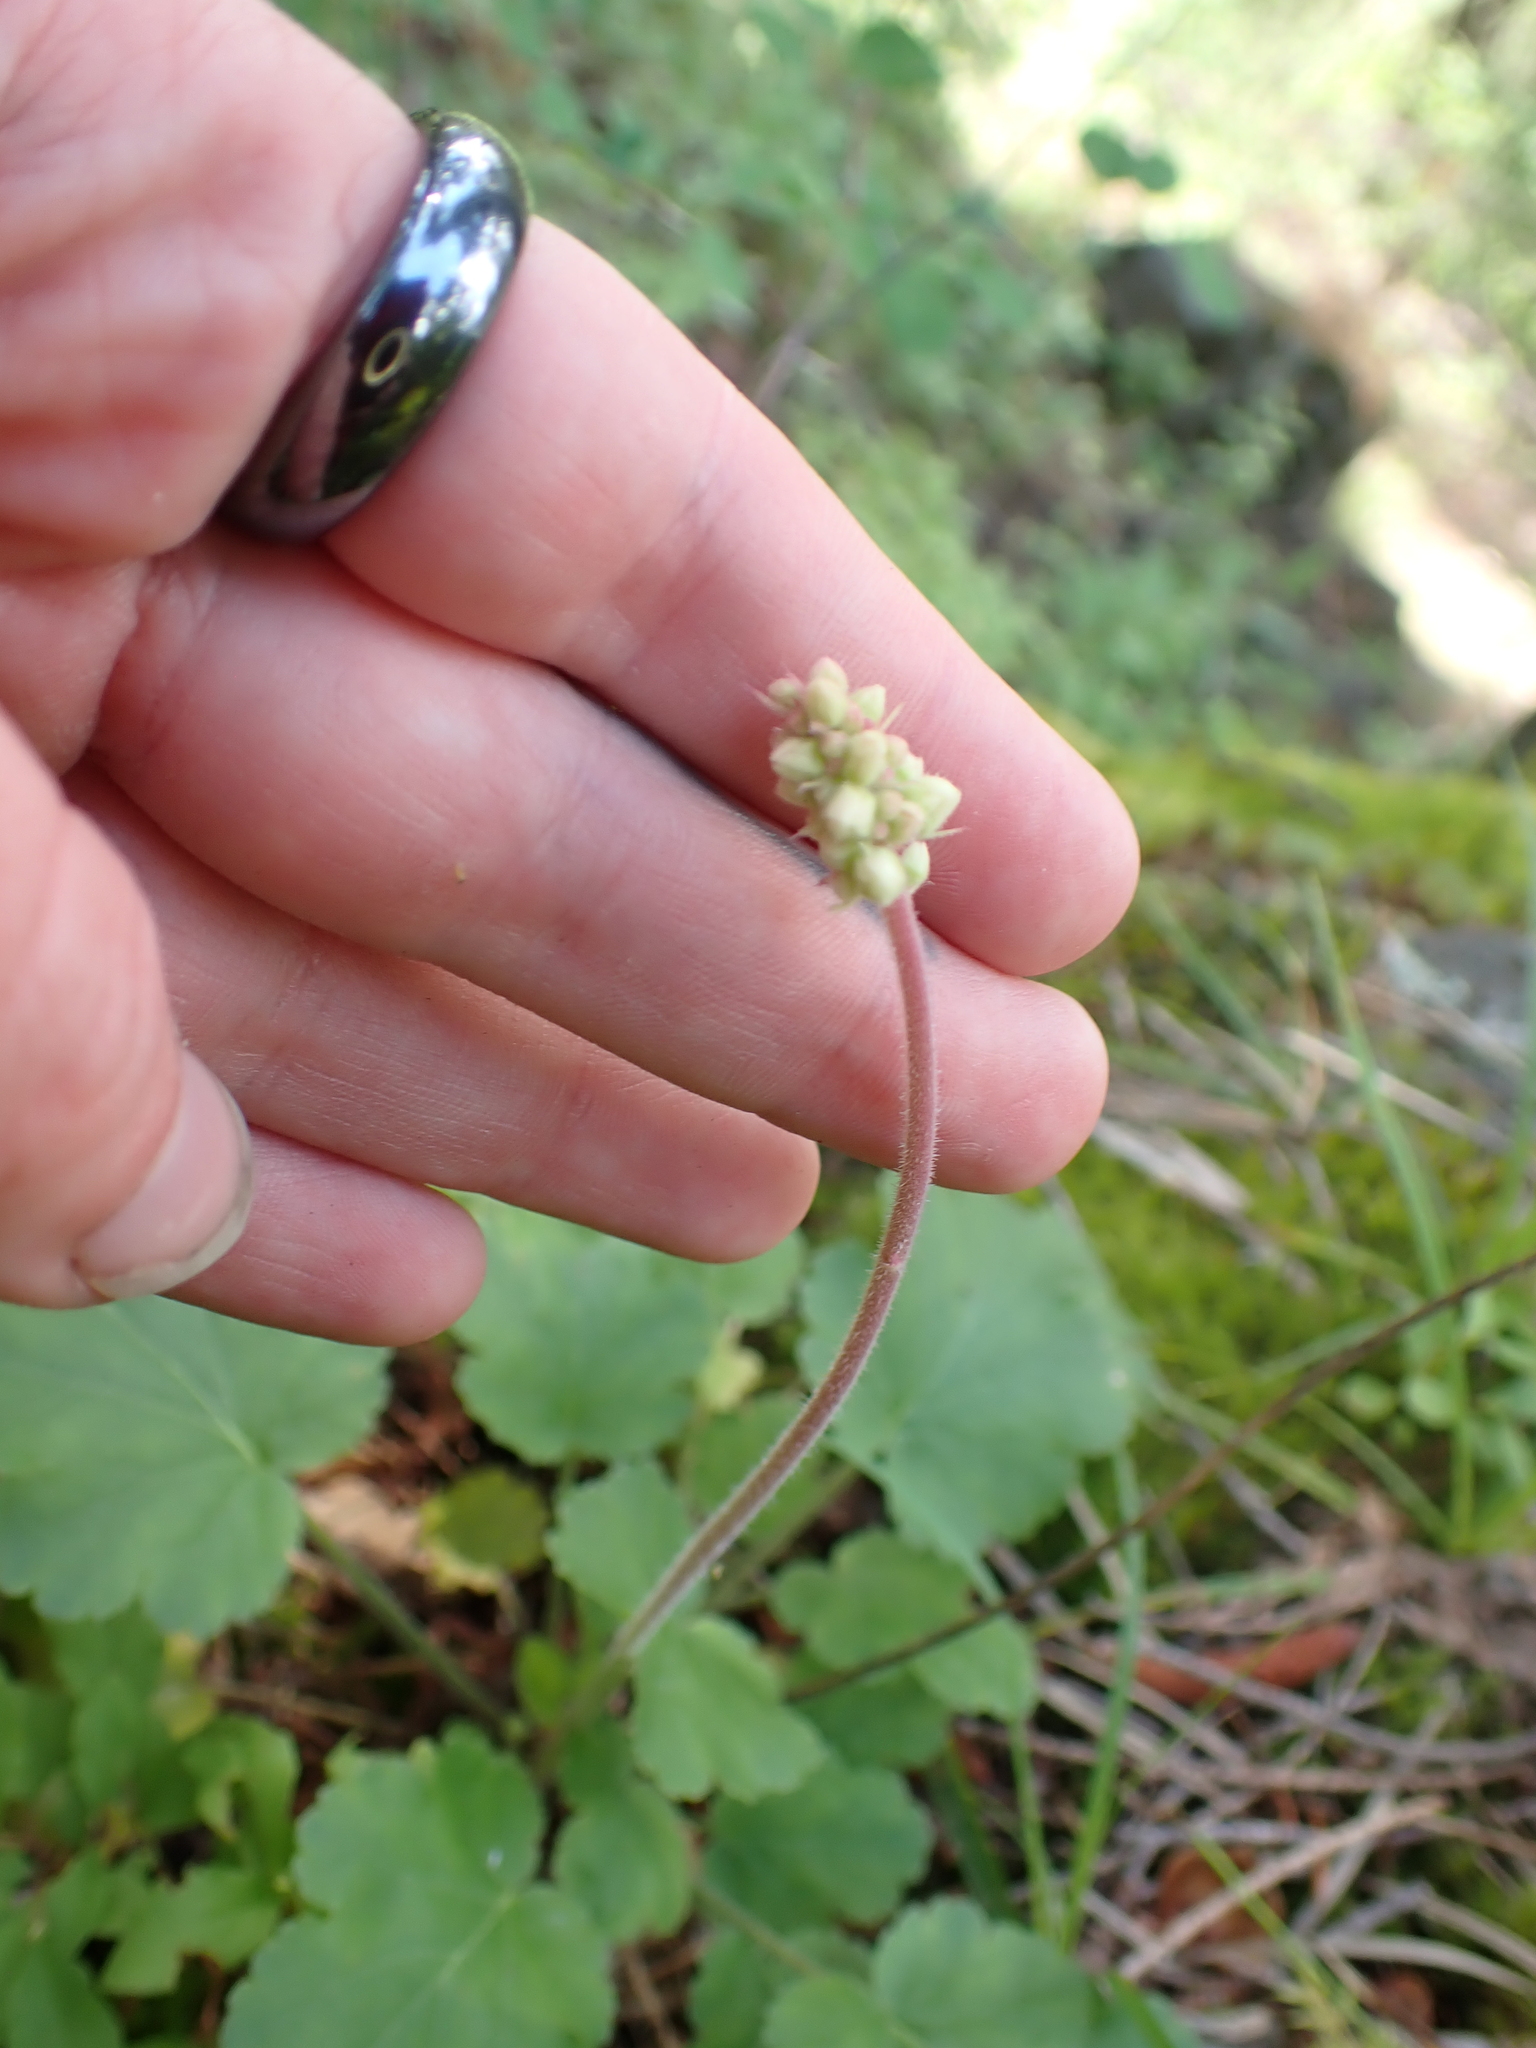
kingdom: Plantae
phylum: Tracheophyta
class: Magnoliopsida
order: Saxifragales
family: Saxifragaceae
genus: Heuchera
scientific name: Heuchera cylindrica
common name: Mat alumroot
